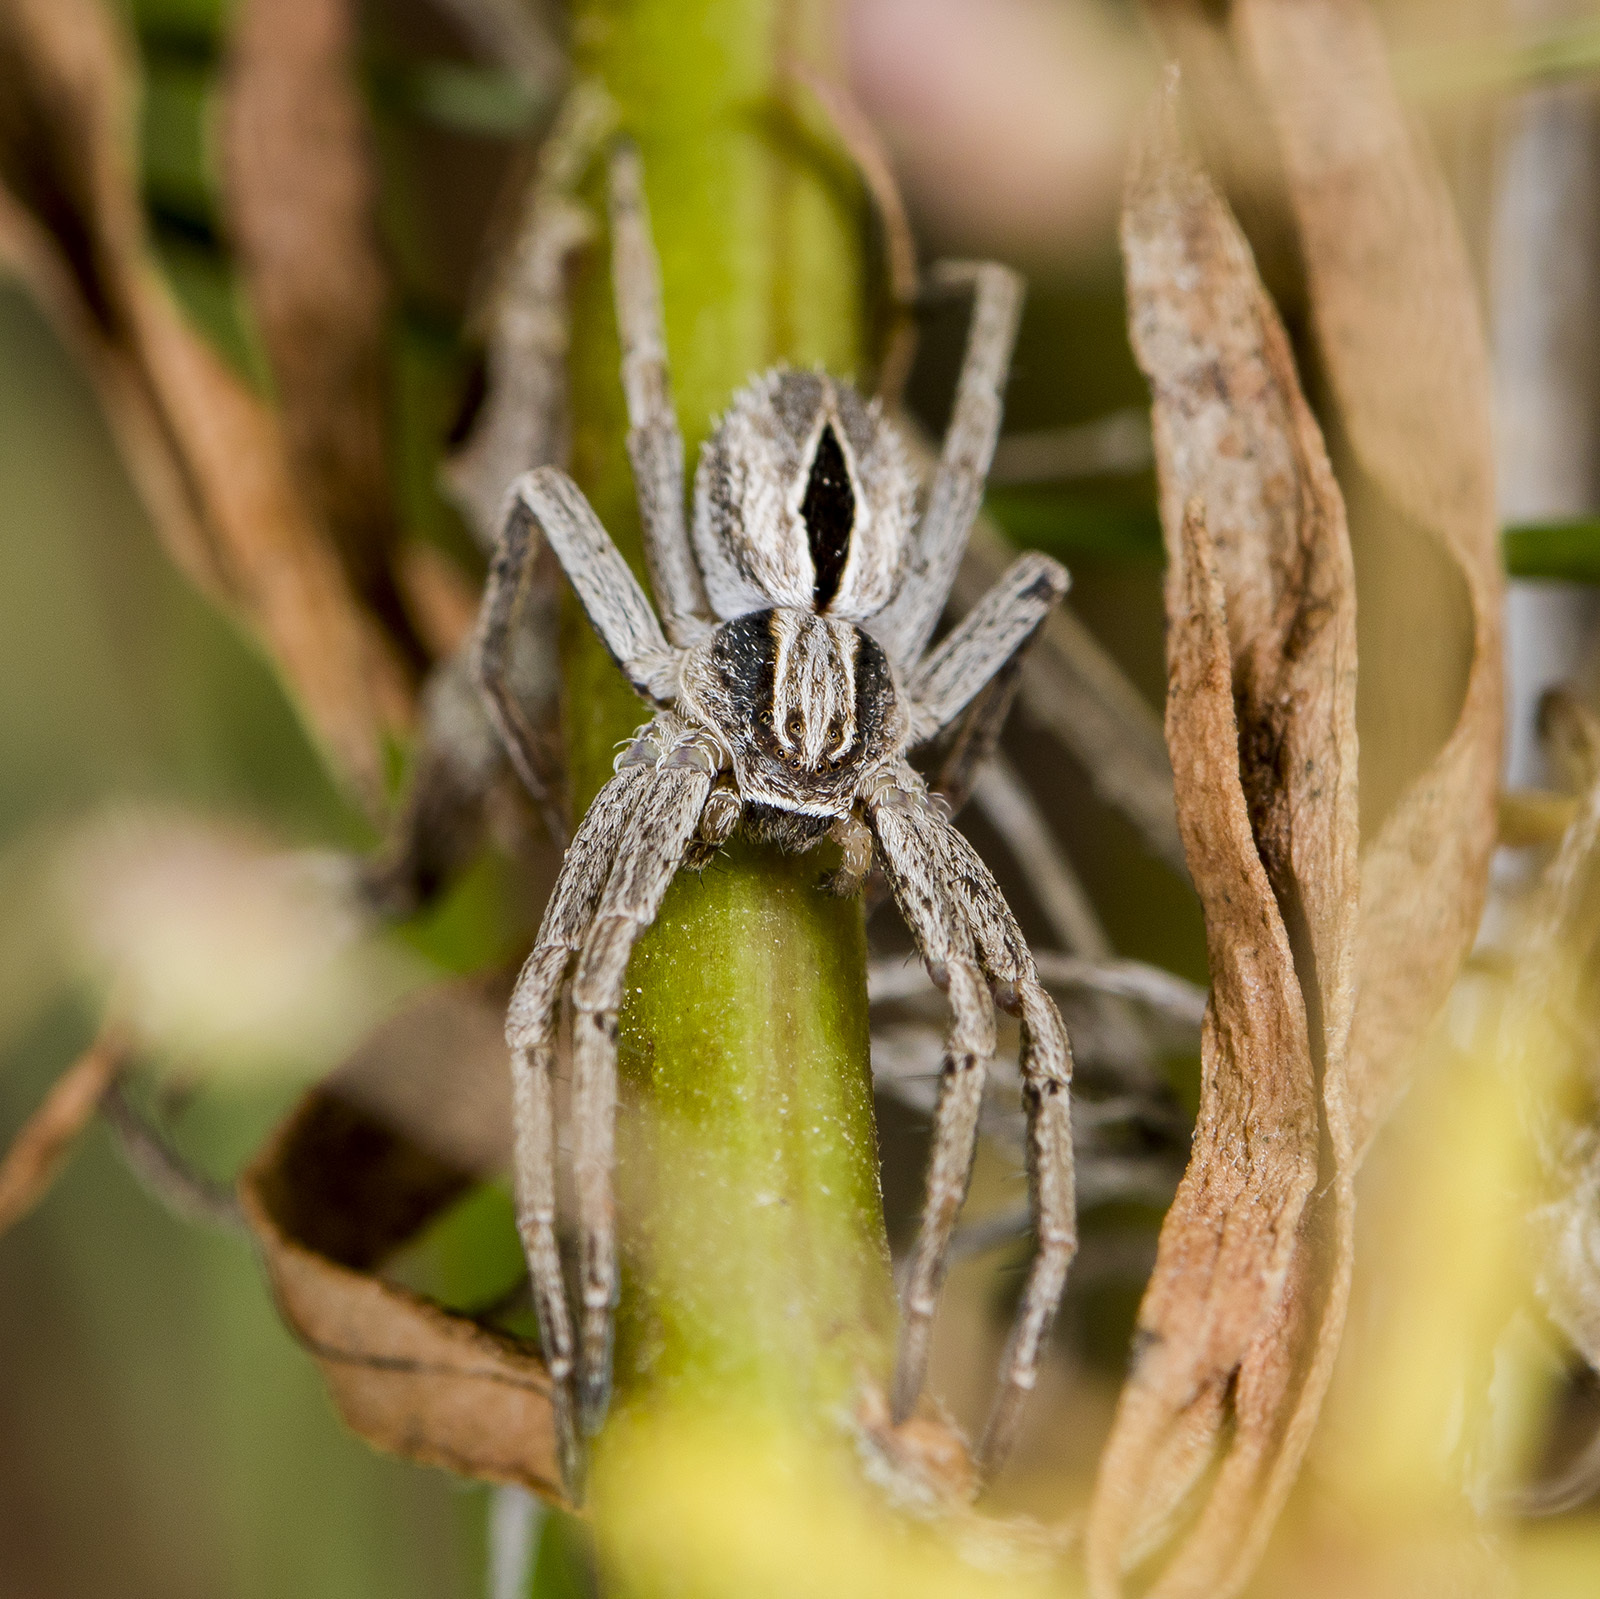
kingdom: Animalia
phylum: Arthropoda
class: Arachnida
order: Araneae
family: Philodromidae
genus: Thanatus
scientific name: Thanatus arenarius
